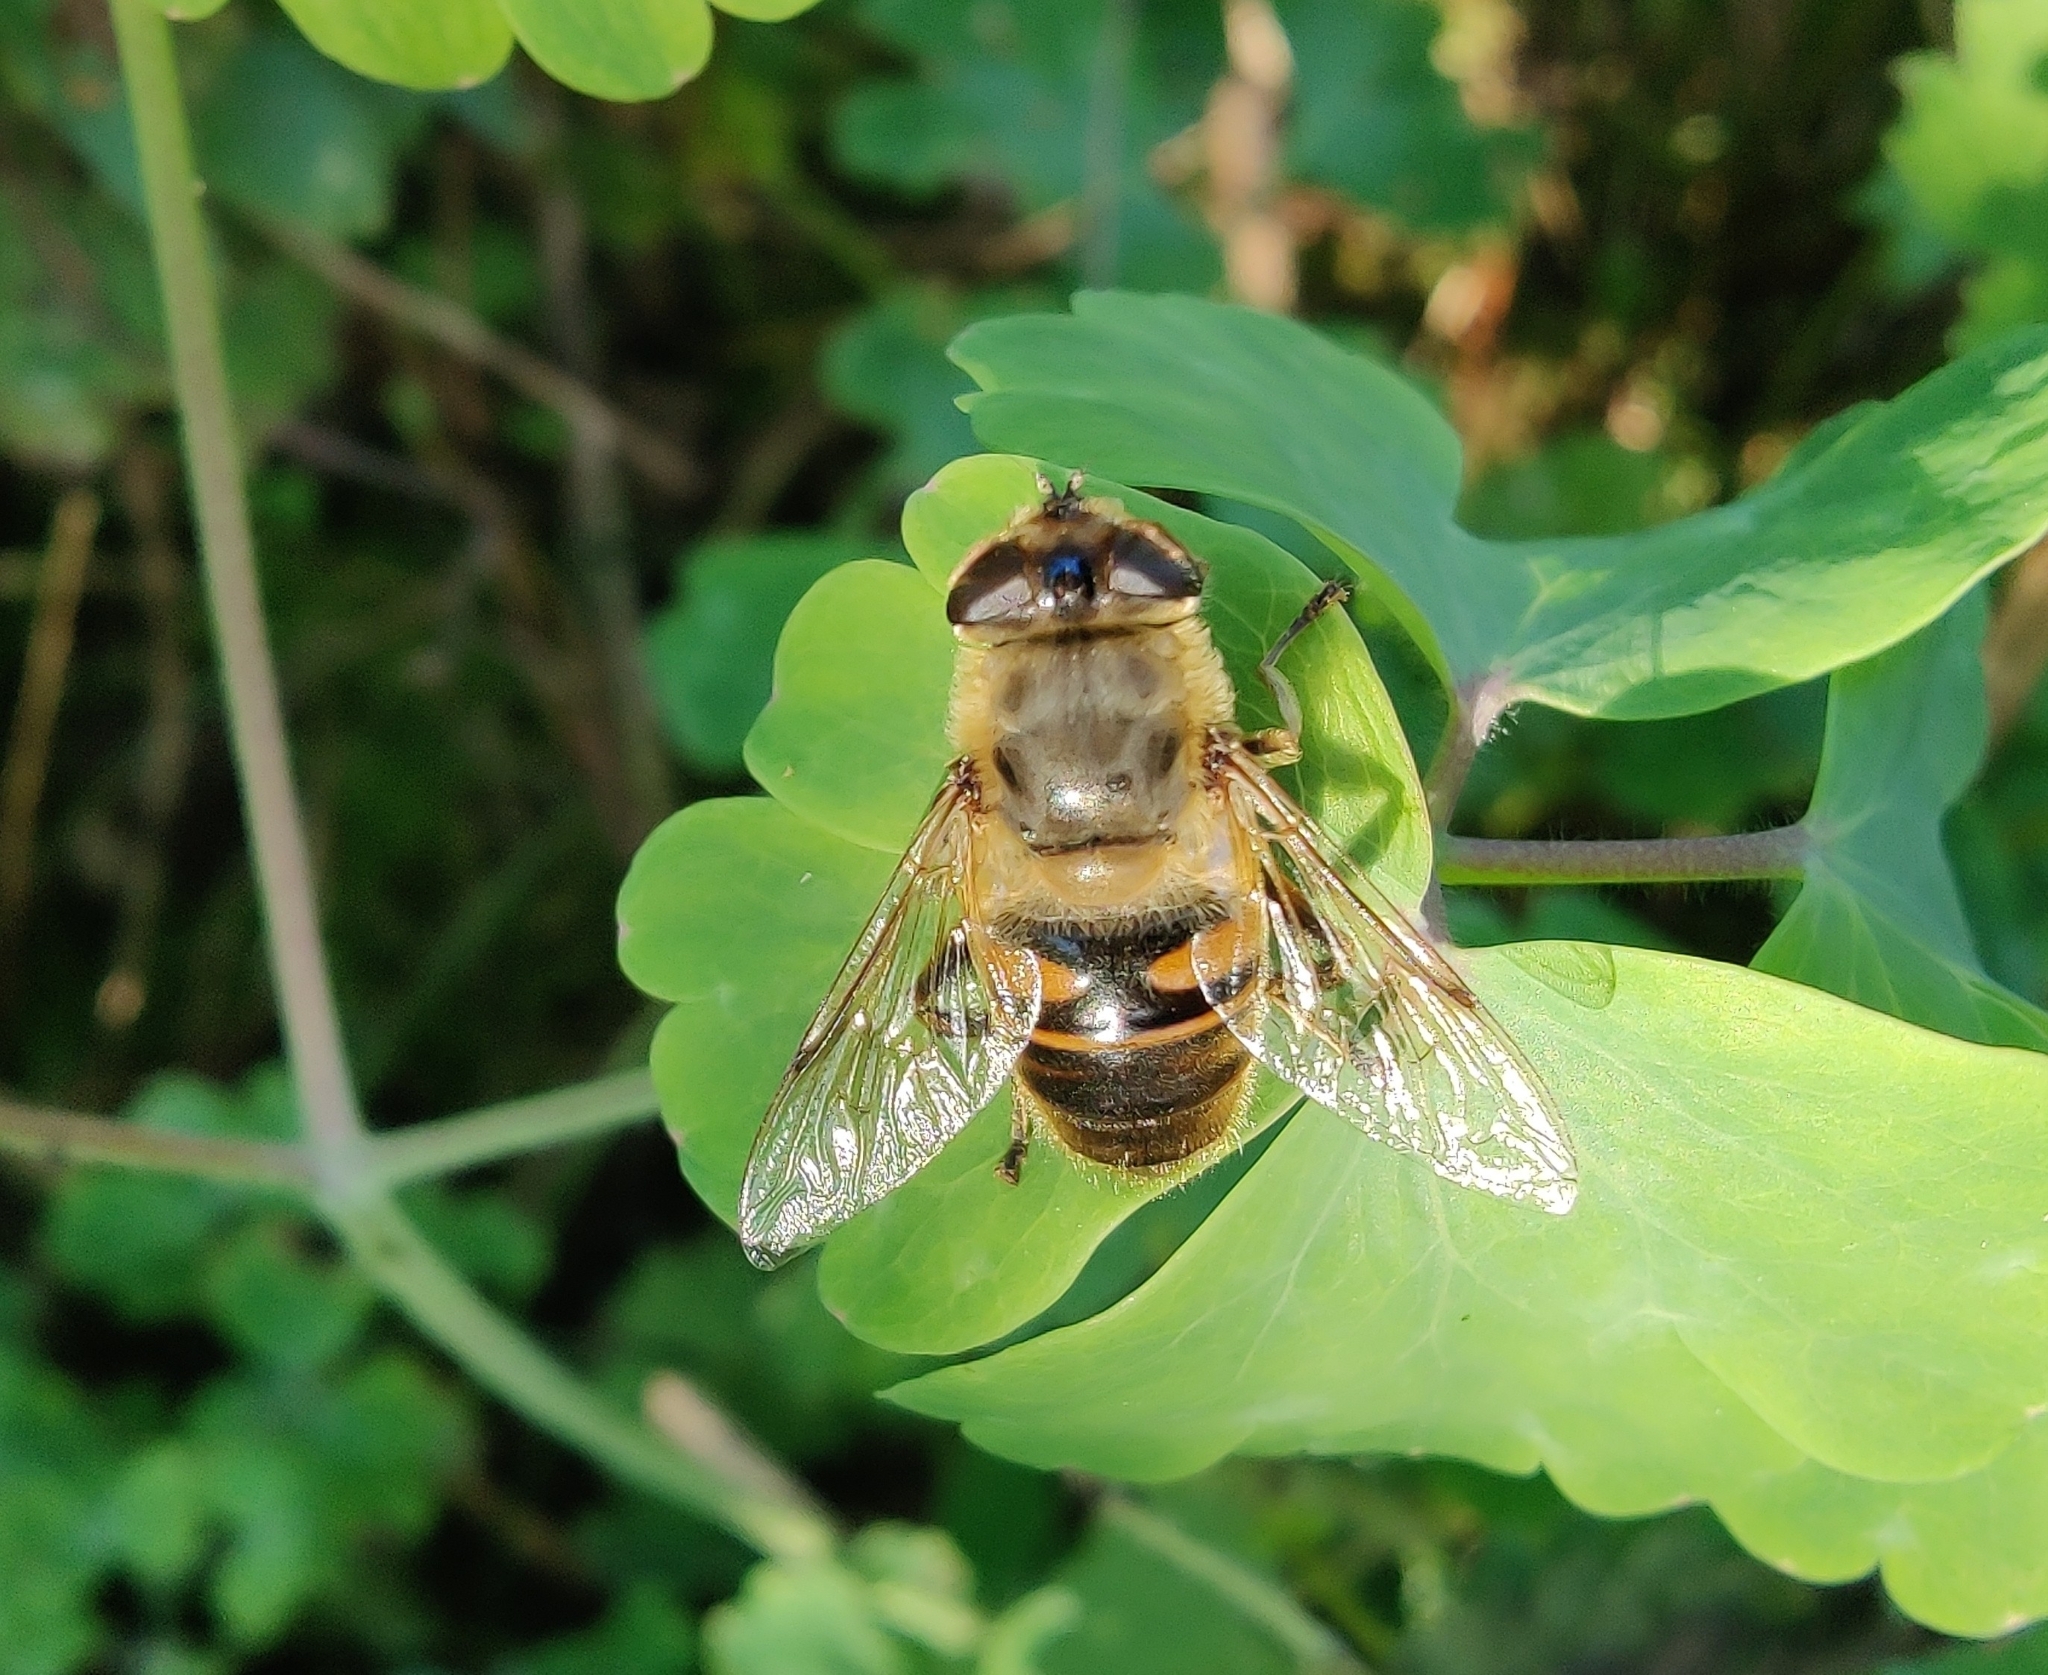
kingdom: Animalia
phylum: Arthropoda
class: Insecta
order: Diptera
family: Syrphidae
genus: Eristalis
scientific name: Eristalis tenax
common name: Drone fly
